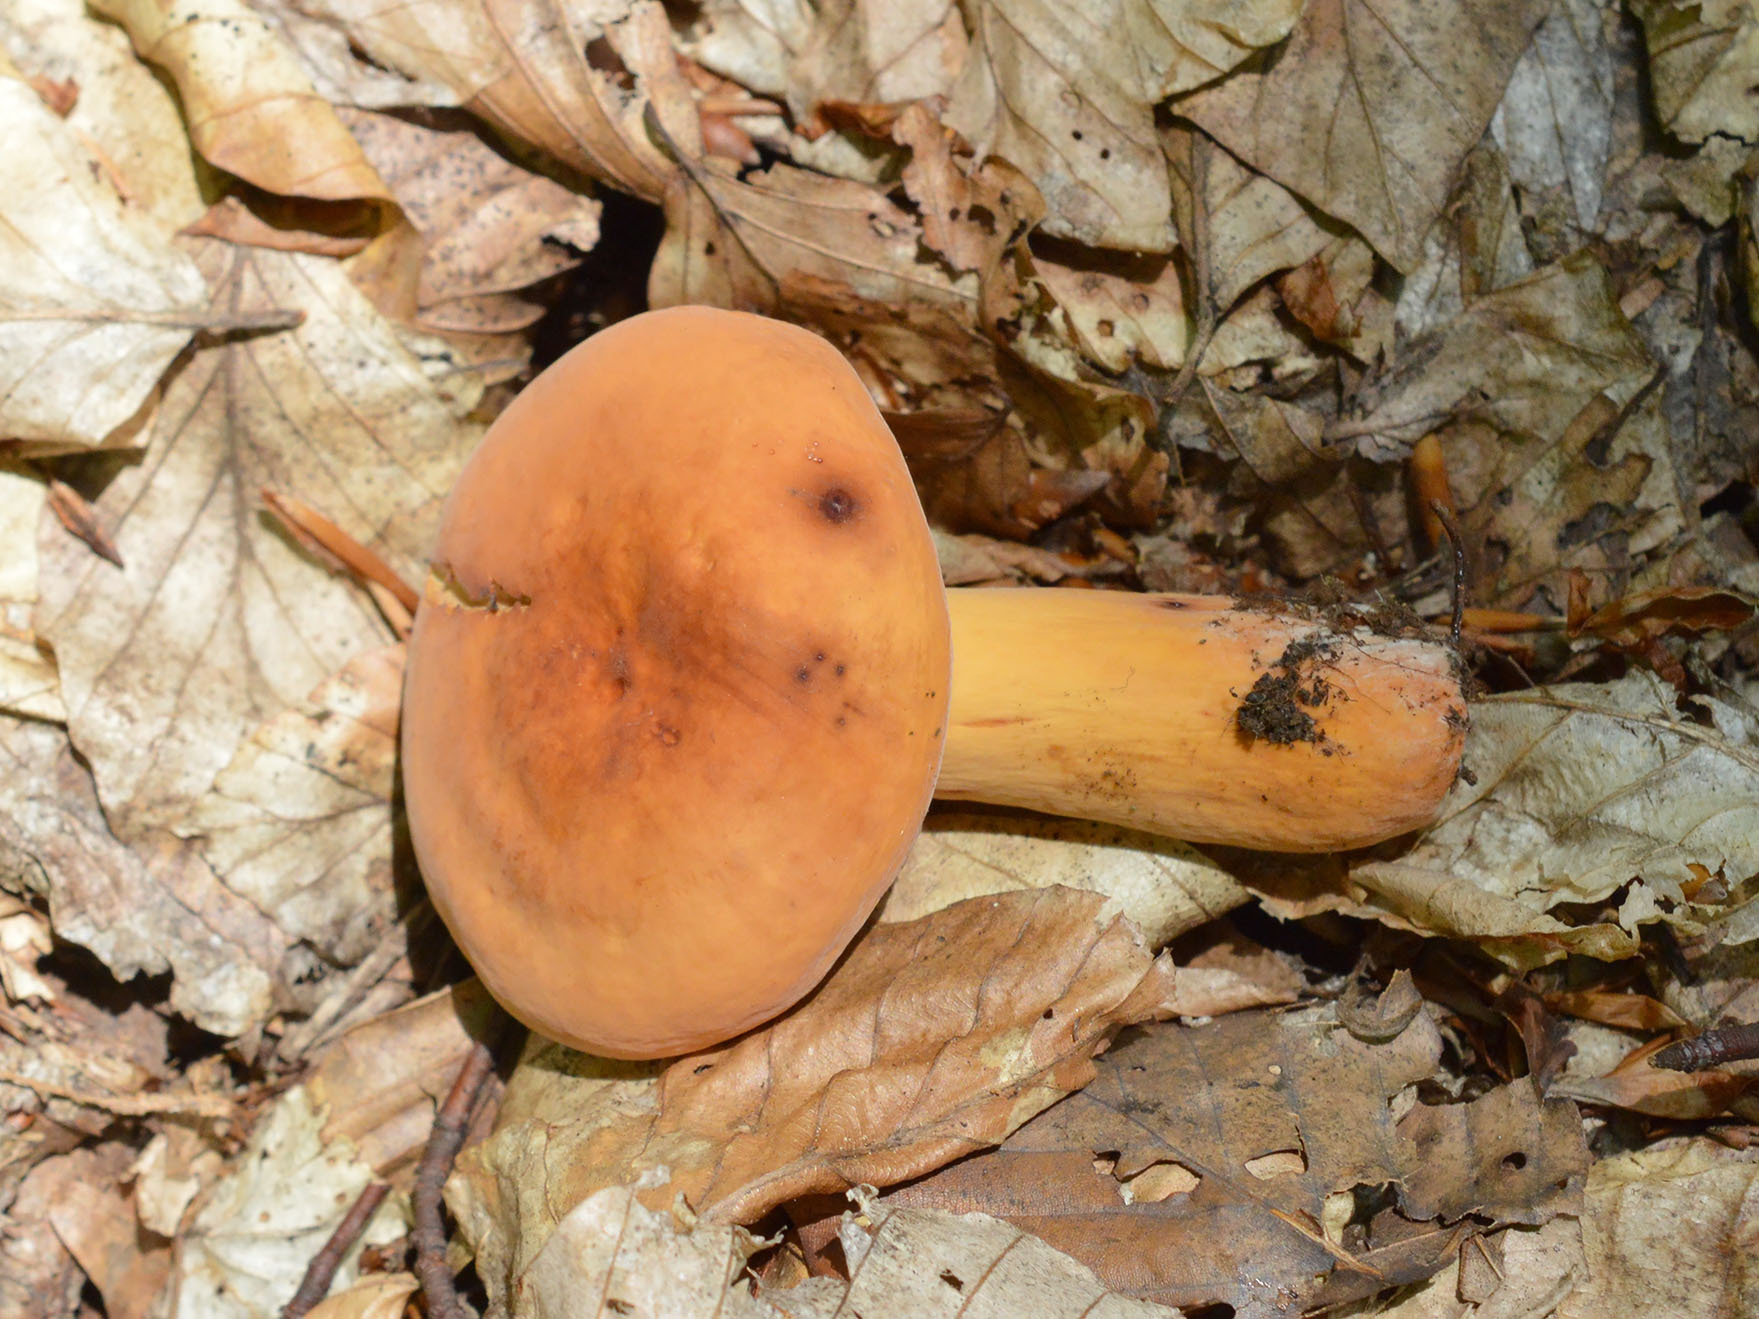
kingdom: Fungi
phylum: Basidiomycota
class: Agaricomycetes
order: Russulales
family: Russulaceae
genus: Lactifluus
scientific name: Lactifluus volemus
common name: Fishy milkcap
